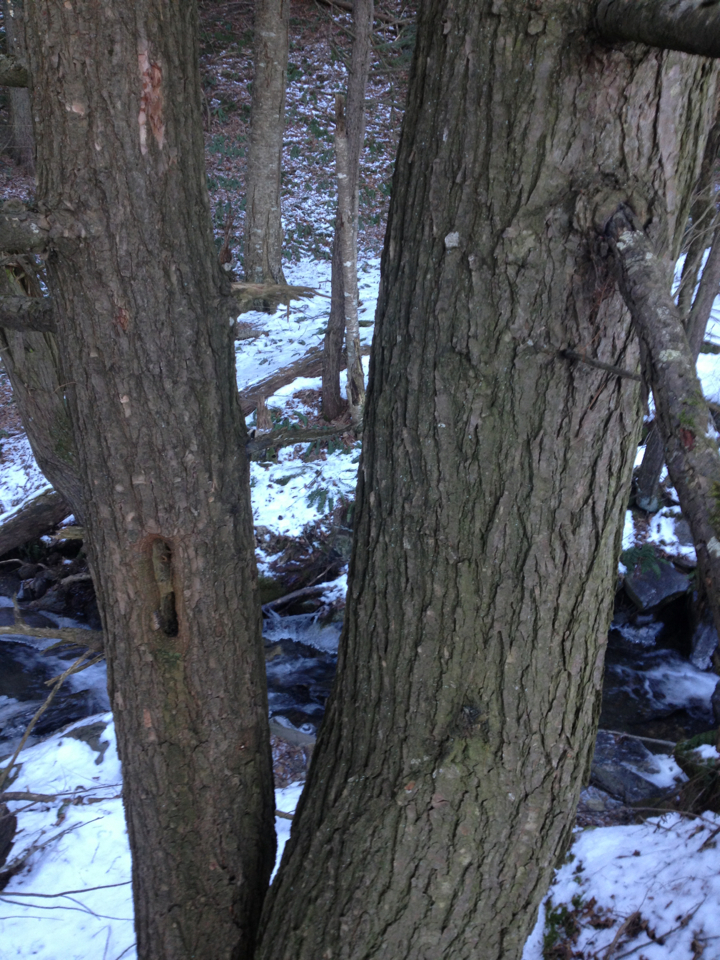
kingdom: Plantae
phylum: Tracheophyta
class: Pinopsida
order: Pinales
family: Pinaceae
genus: Tsuga
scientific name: Tsuga canadensis
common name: Eastern hemlock
